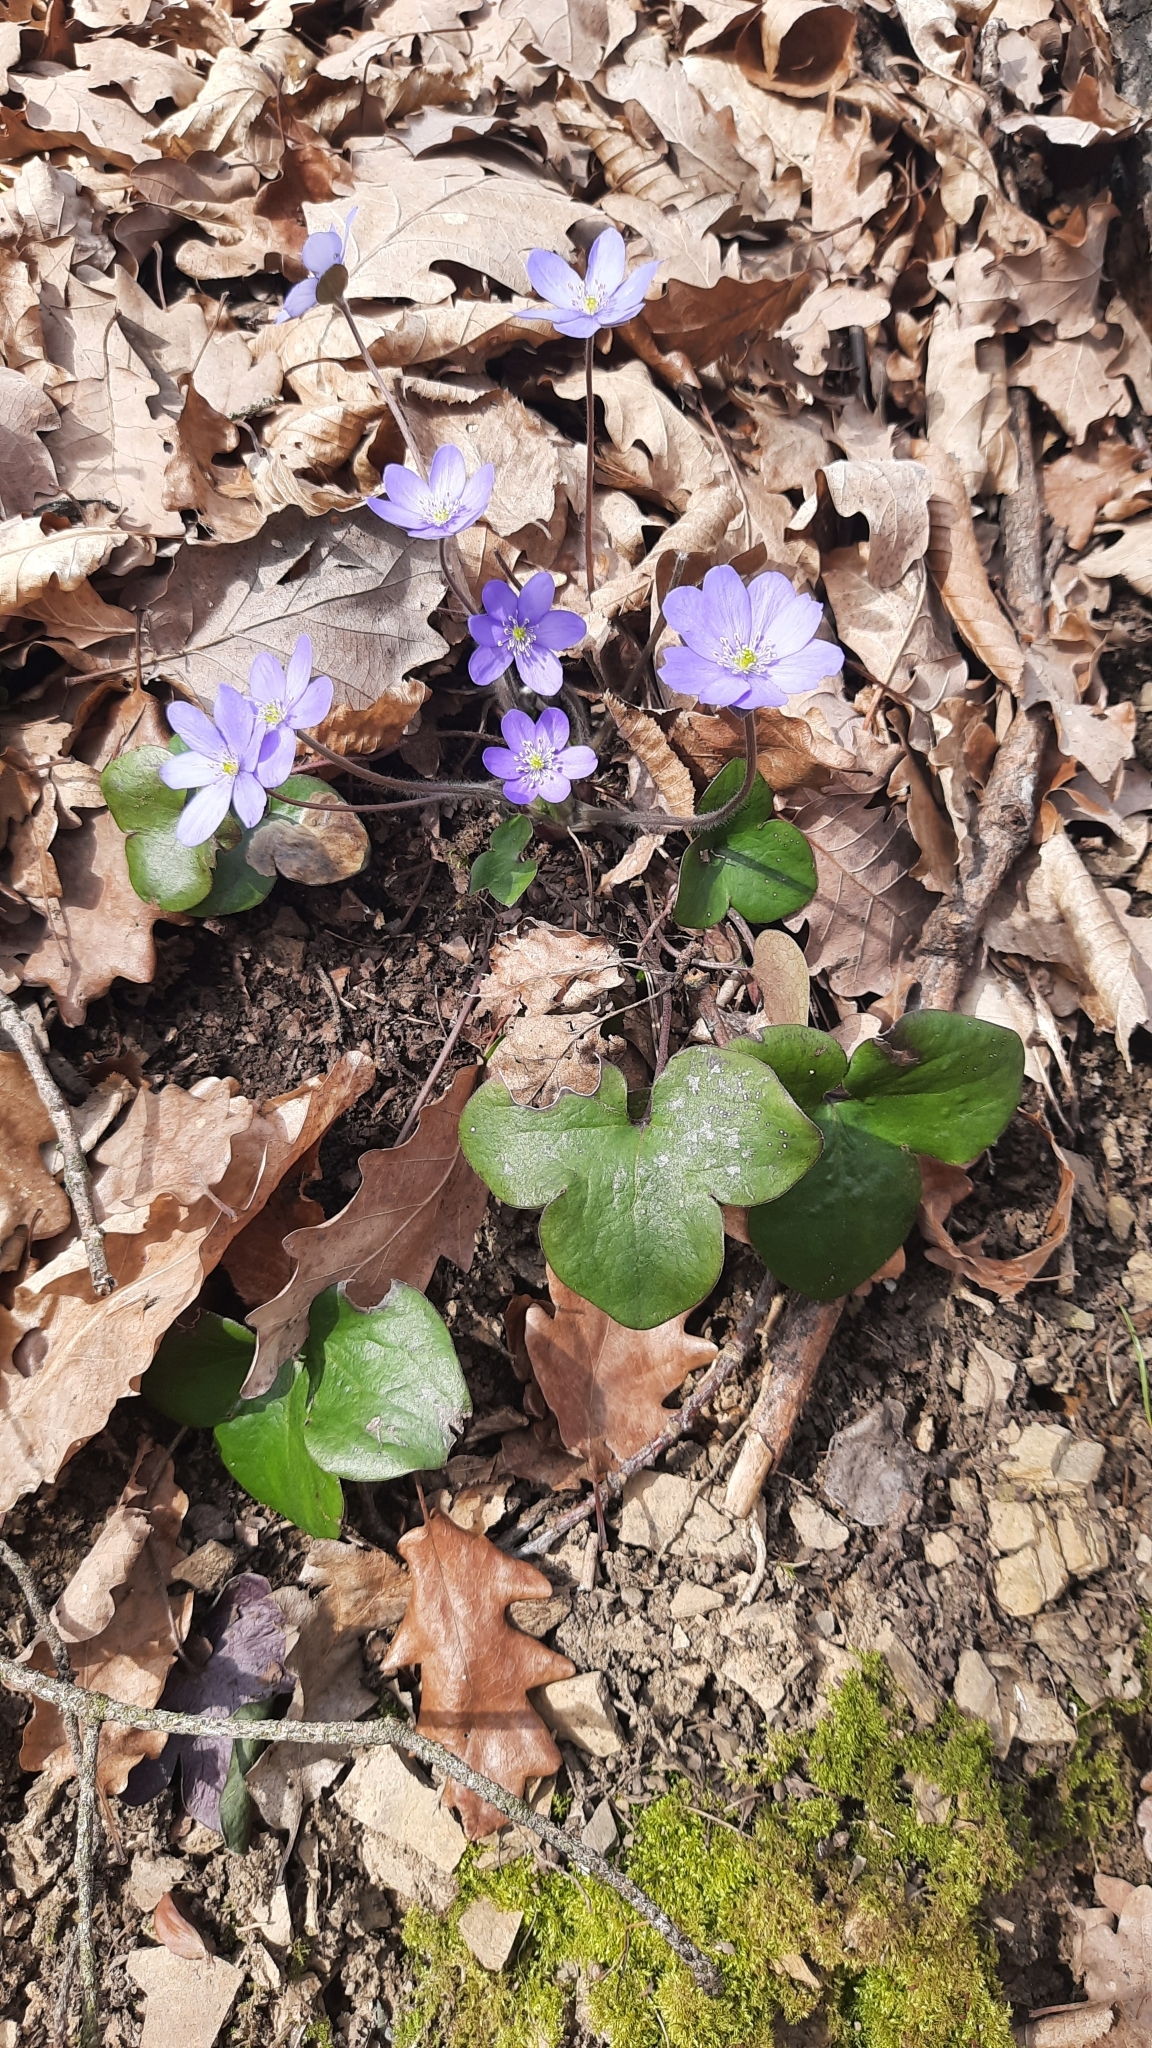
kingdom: Plantae
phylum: Tracheophyta
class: Magnoliopsida
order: Ranunculales
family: Ranunculaceae
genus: Hepatica
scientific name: Hepatica nobilis
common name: Liverleaf
